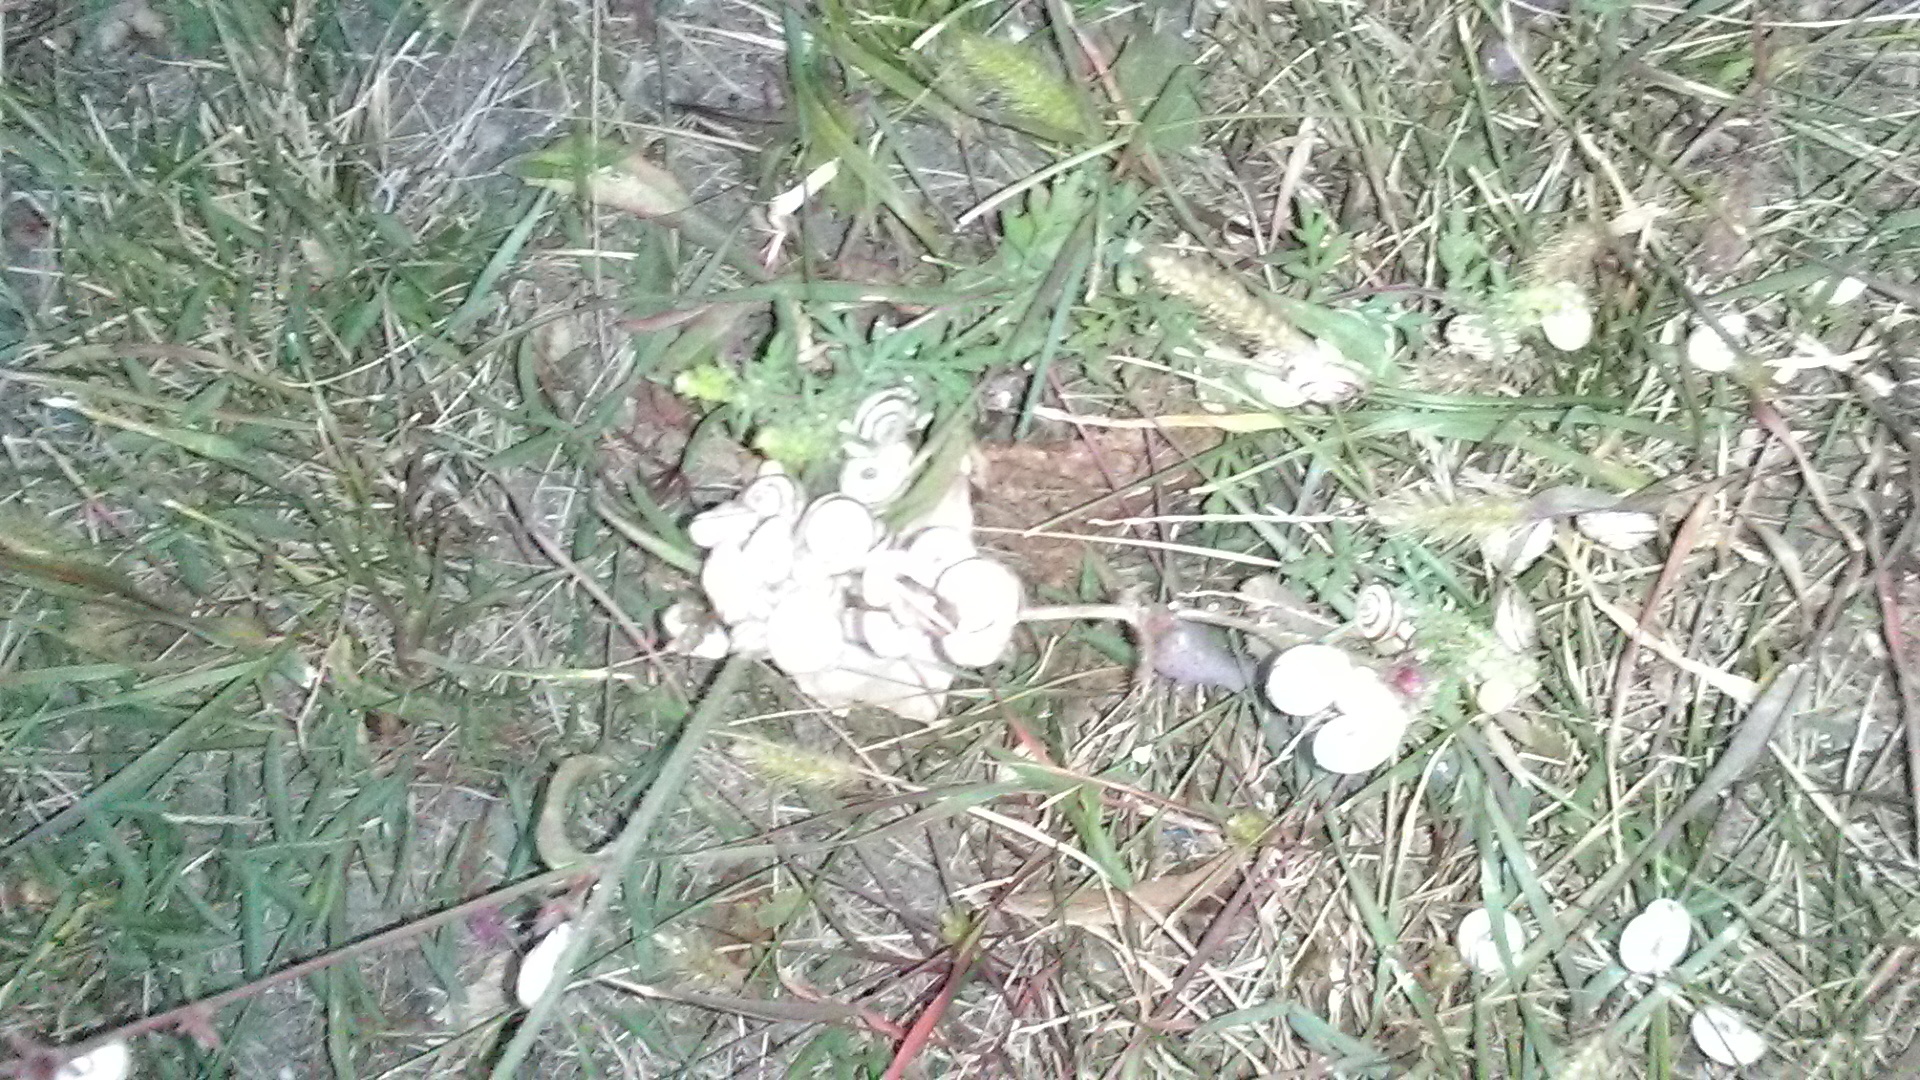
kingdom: Animalia
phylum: Mollusca
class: Gastropoda
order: Stylommatophora
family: Geomitridae
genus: Xeropicta
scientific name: Xeropicta derbentina
